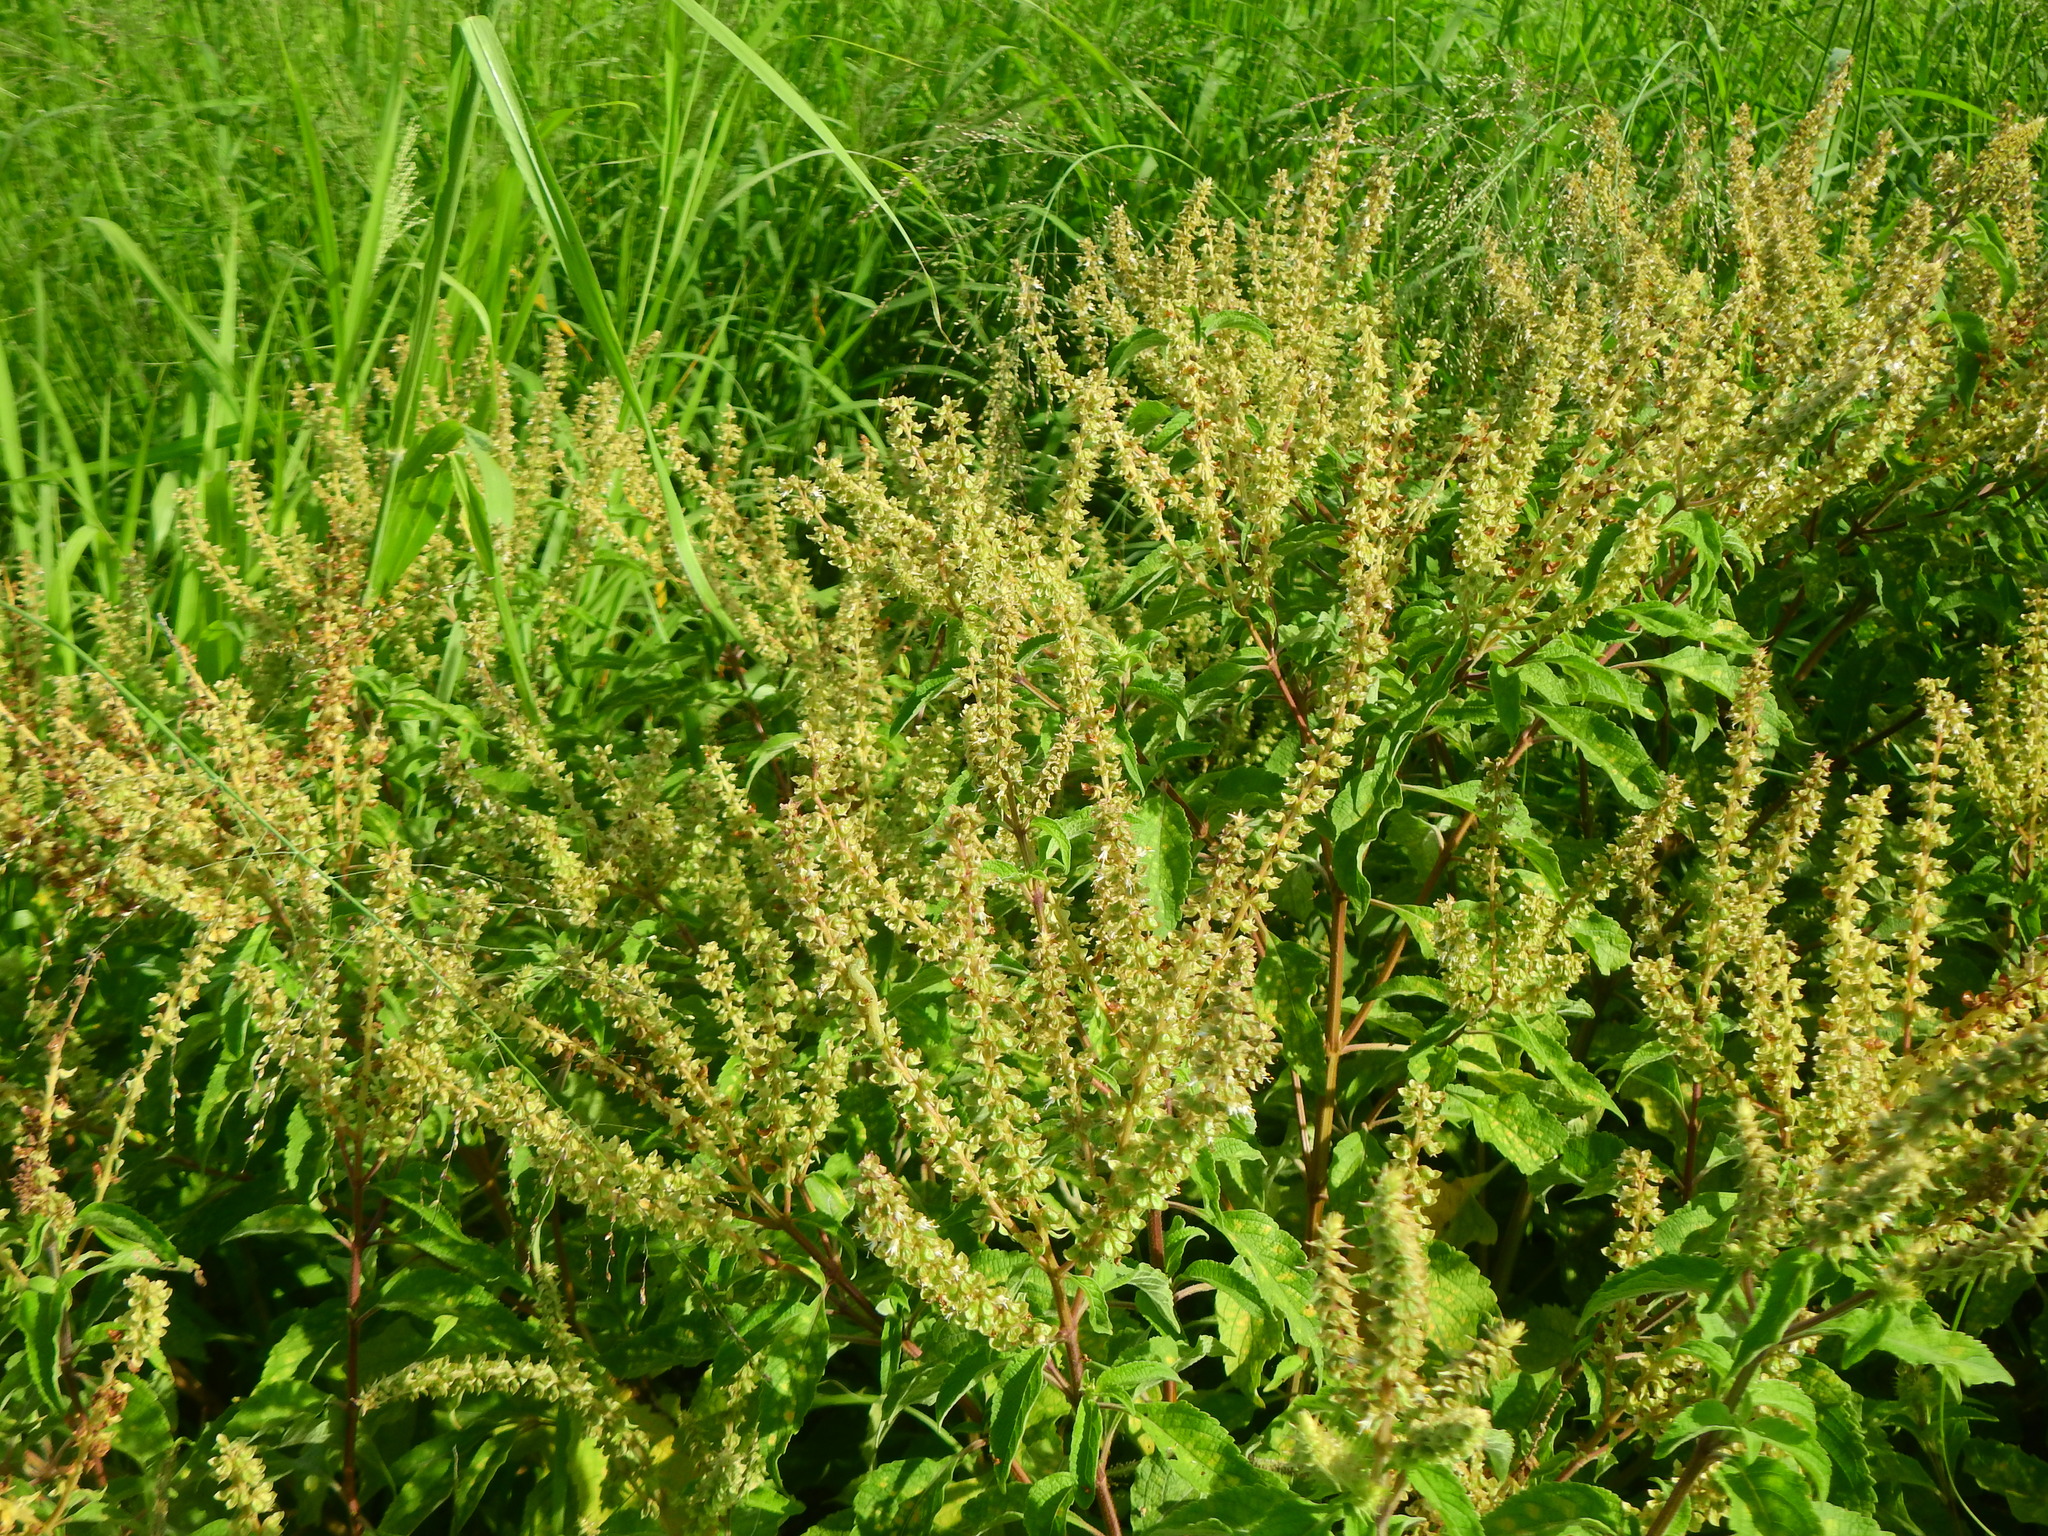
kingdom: Plantae
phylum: Tracheophyta
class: Magnoliopsida
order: Lamiales
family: Lamiaceae
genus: Ocimum
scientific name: Ocimum gratissimum
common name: African basil
